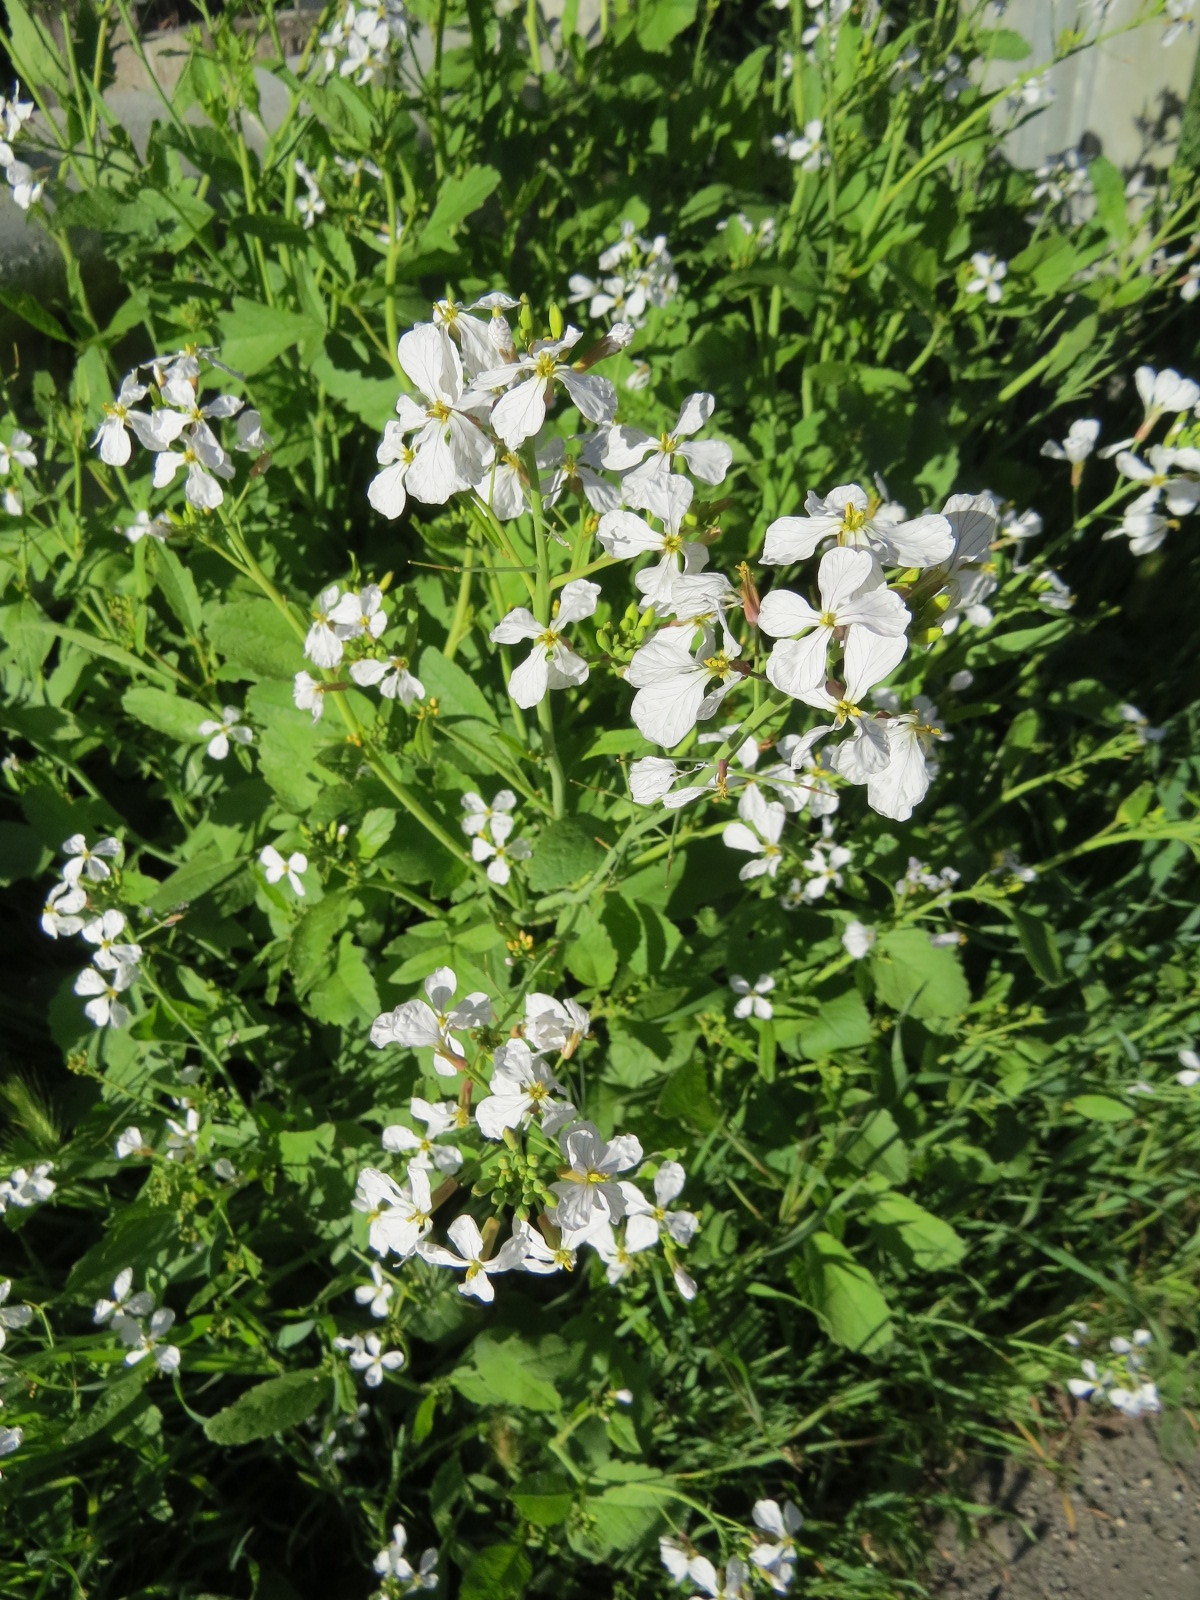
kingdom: Plantae
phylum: Tracheophyta
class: Magnoliopsida
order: Brassicales
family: Brassicaceae
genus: Raphanus
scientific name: Raphanus sativus
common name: Cultivated radish
